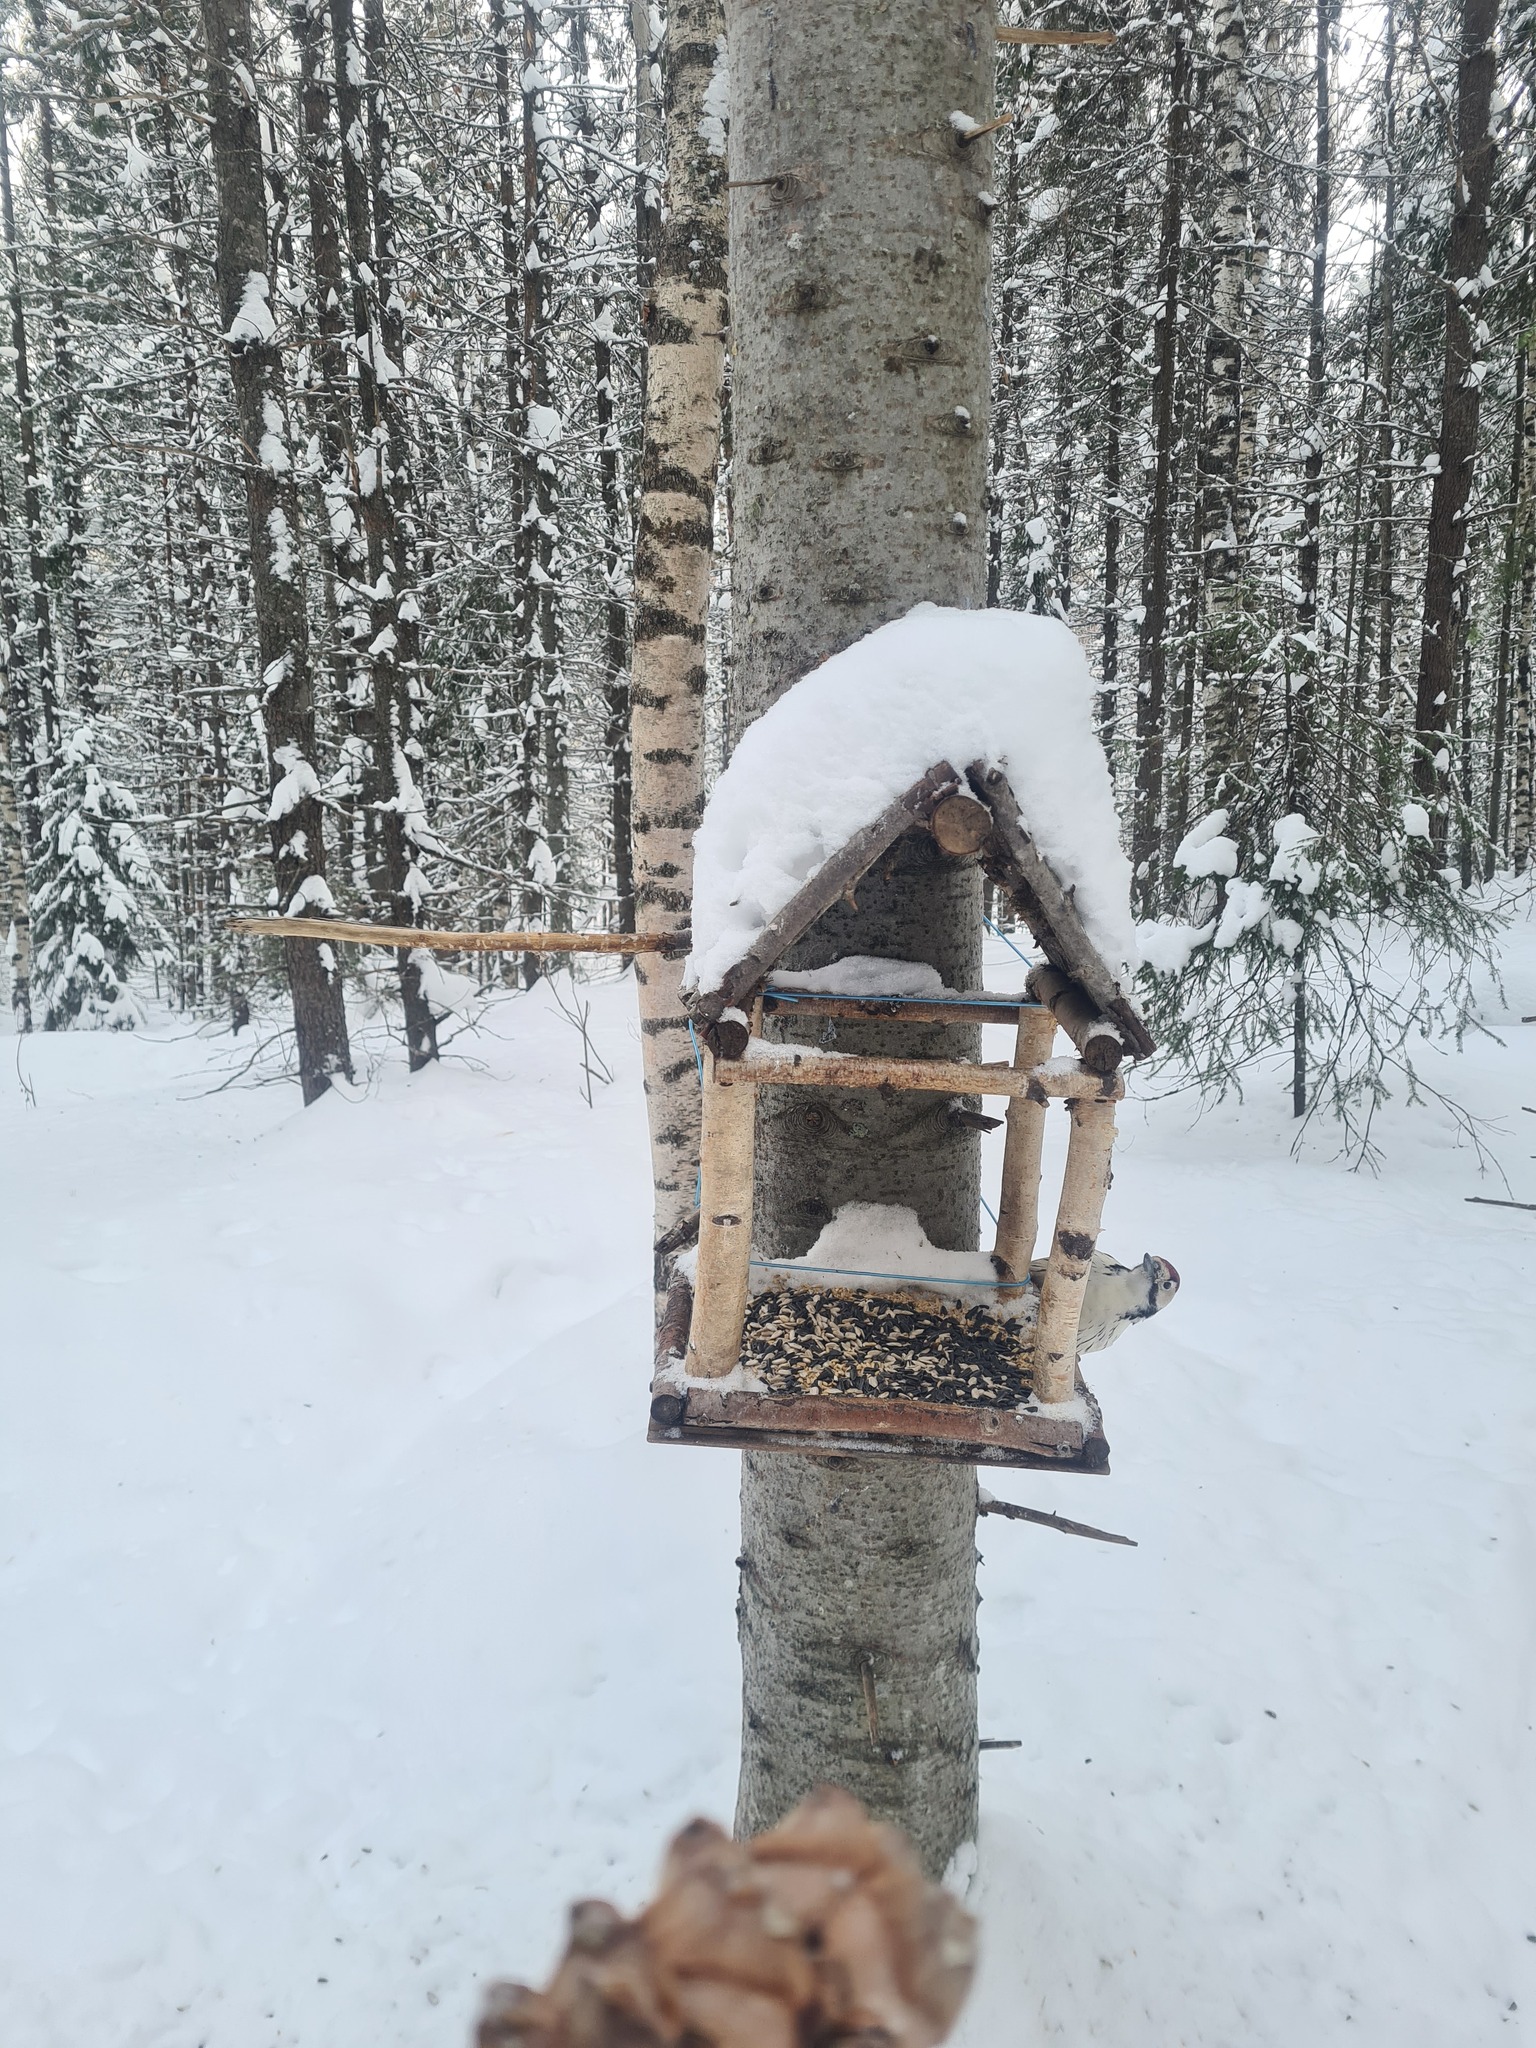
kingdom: Animalia
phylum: Chordata
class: Aves
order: Piciformes
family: Picidae
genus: Dendrocopos
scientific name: Dendrocopos leucotos
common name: White-backed woodpecker
